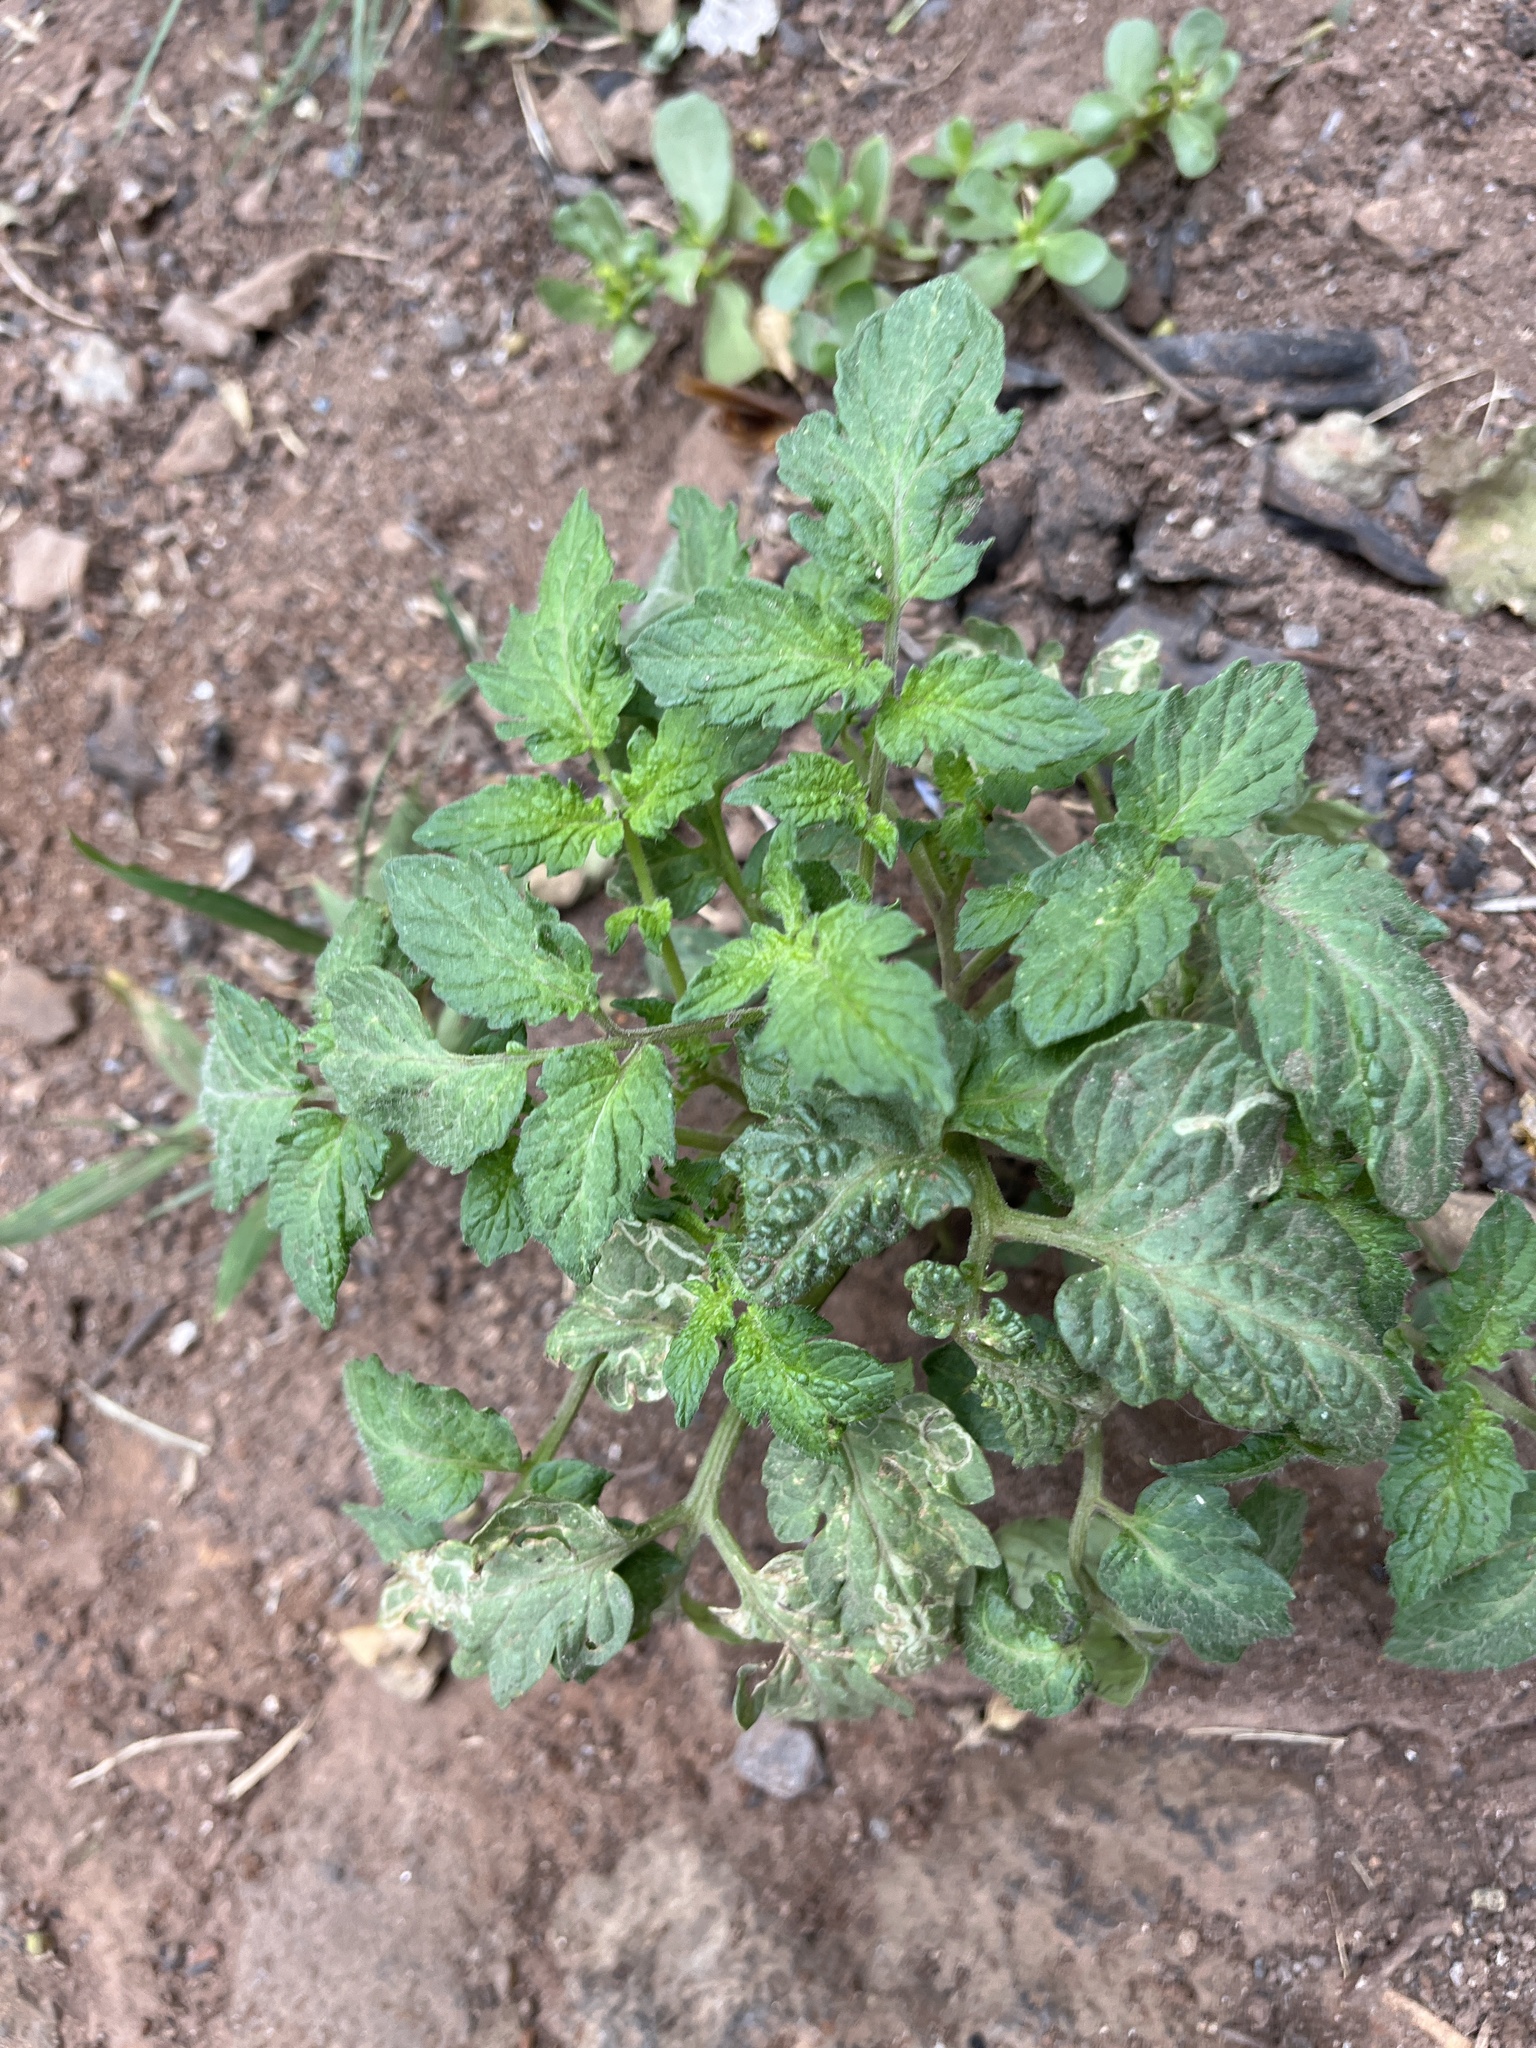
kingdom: Plantae
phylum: Tracheophyta
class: Magnoliopsida
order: Solanales
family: Solanaceae
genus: Solanum
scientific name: Solanum lycopersicum
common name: Garden tomato
